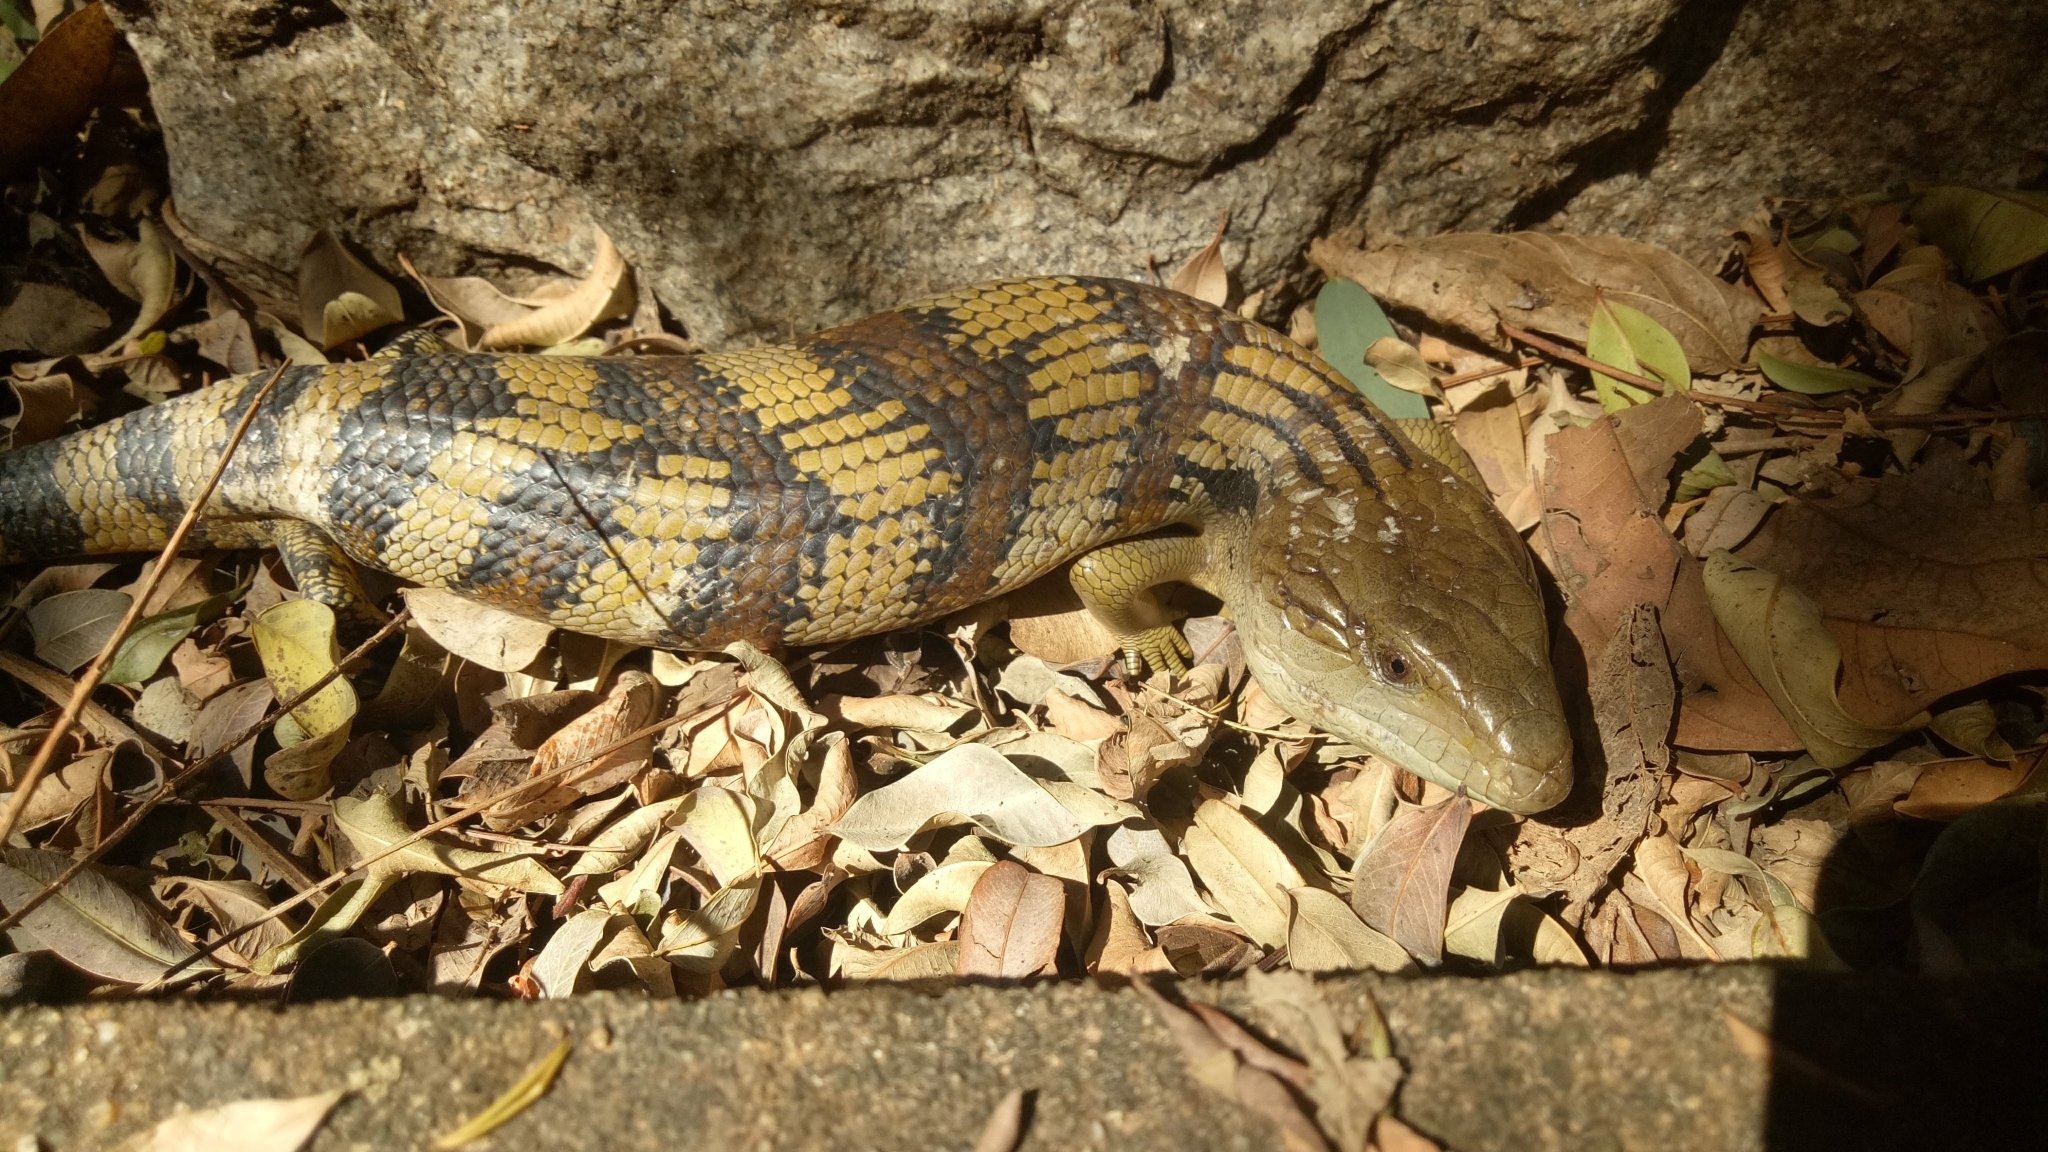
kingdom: Animalia
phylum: Chordata
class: Squamata
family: Scincidae
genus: Tiliqua
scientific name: Tiliqua scincoides
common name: Common bluetongue
